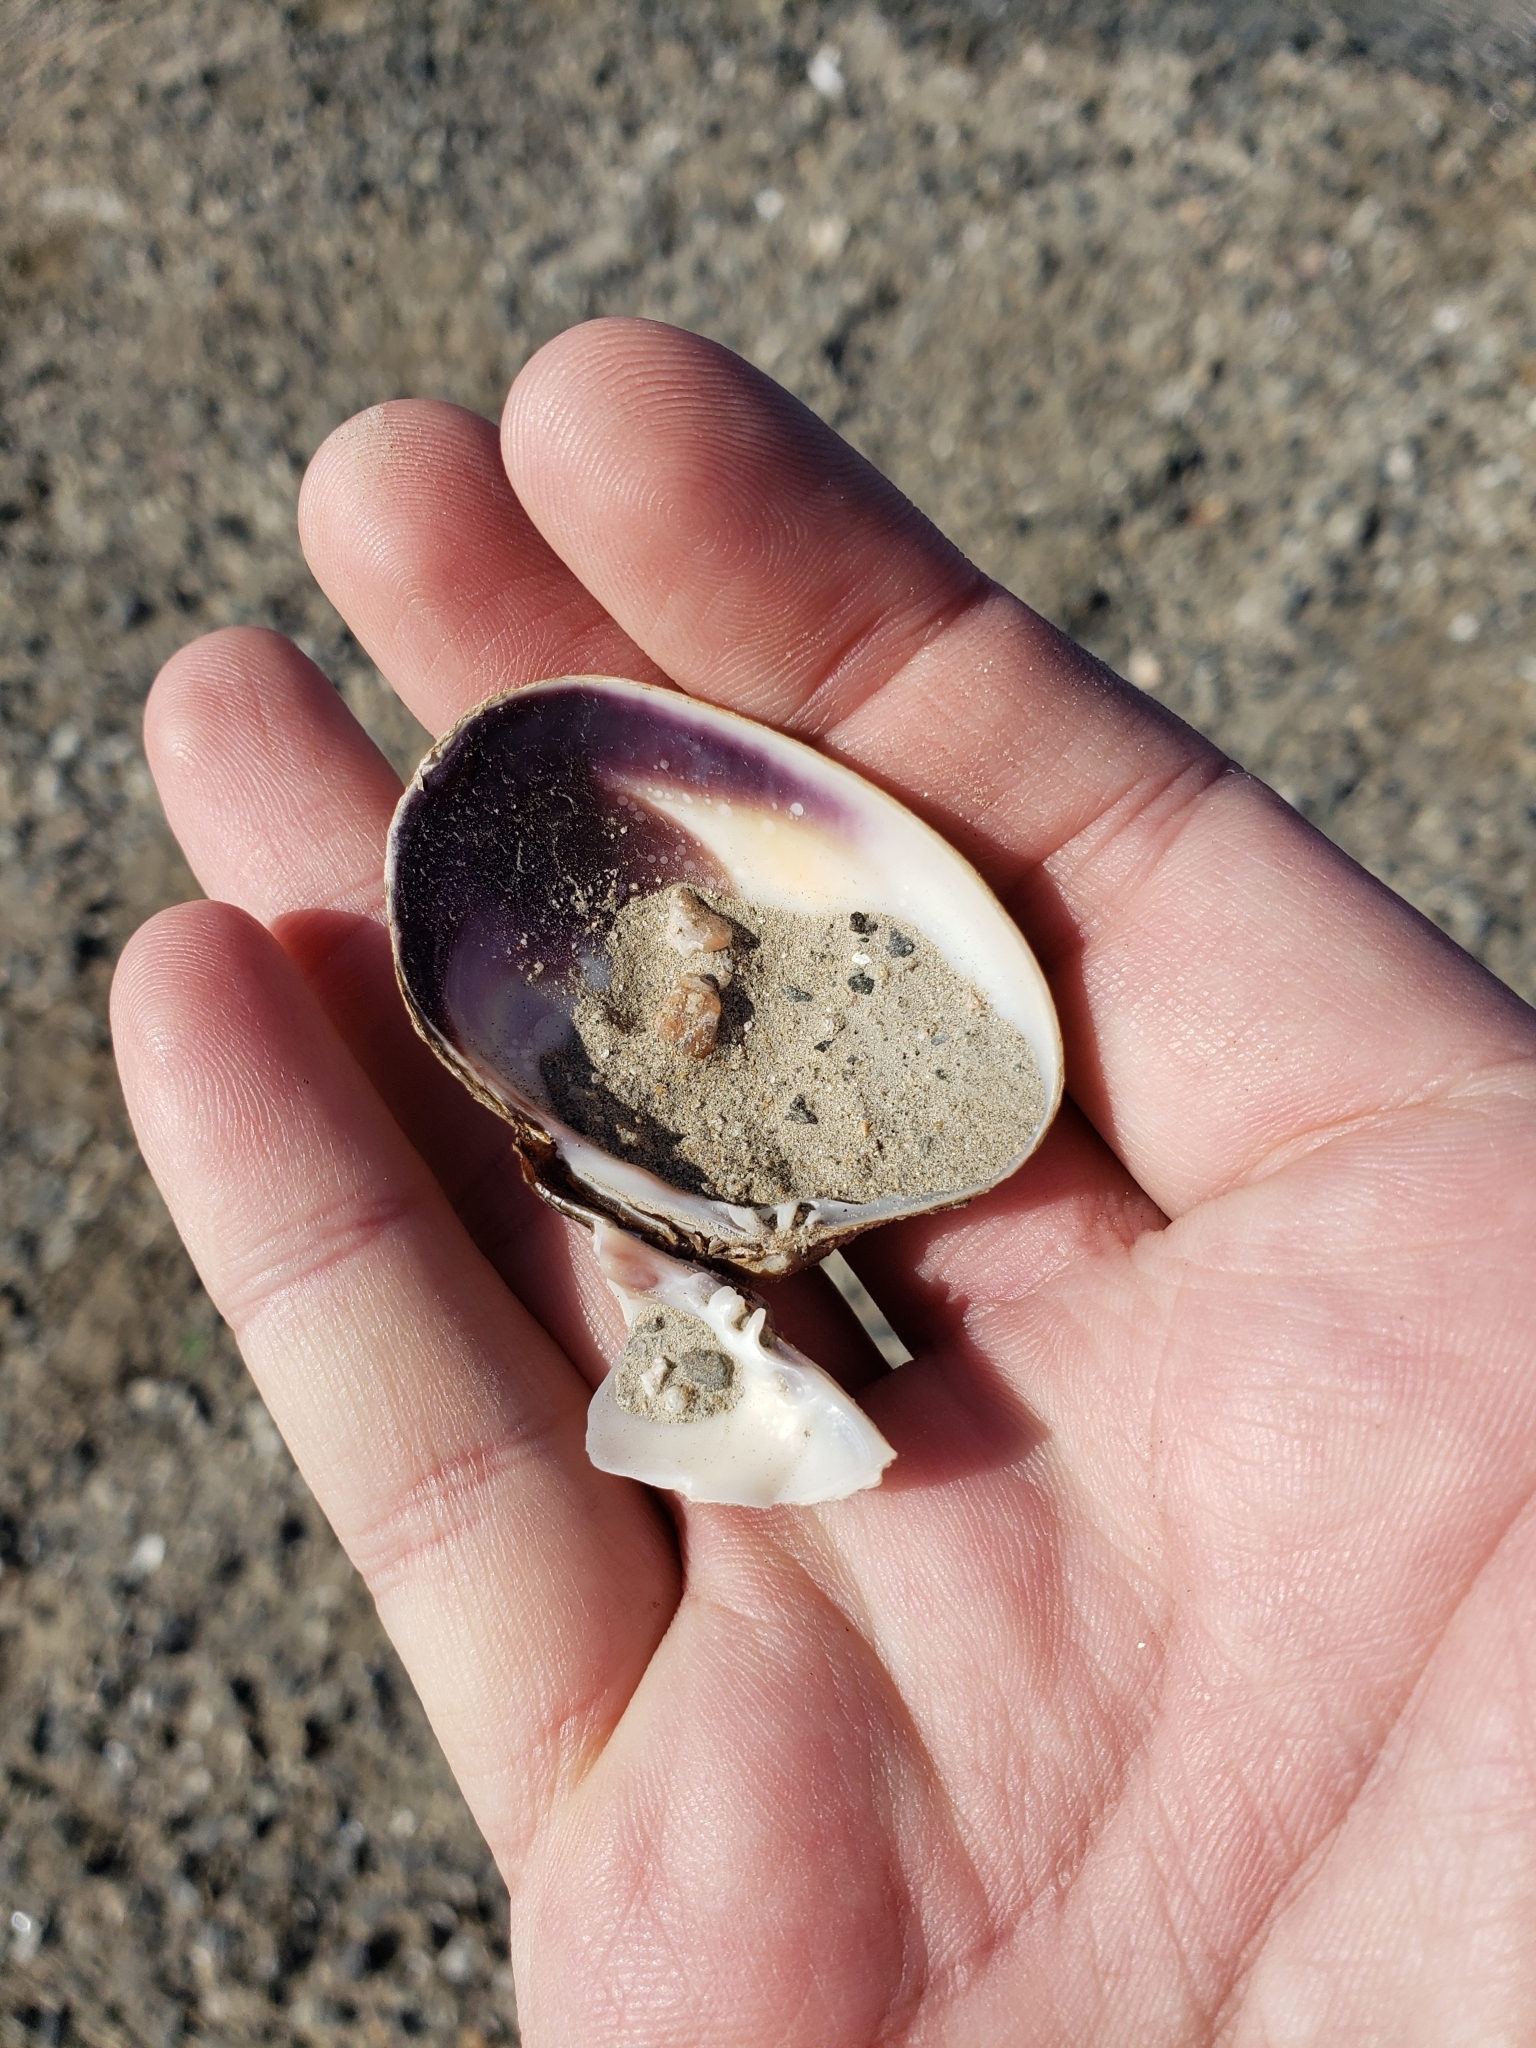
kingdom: Animalia
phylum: Mollusca
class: Bivalvia
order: Venerida
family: Veneridae
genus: Ruditapes
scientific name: Ruditapes philippinarum
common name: Manila clam
